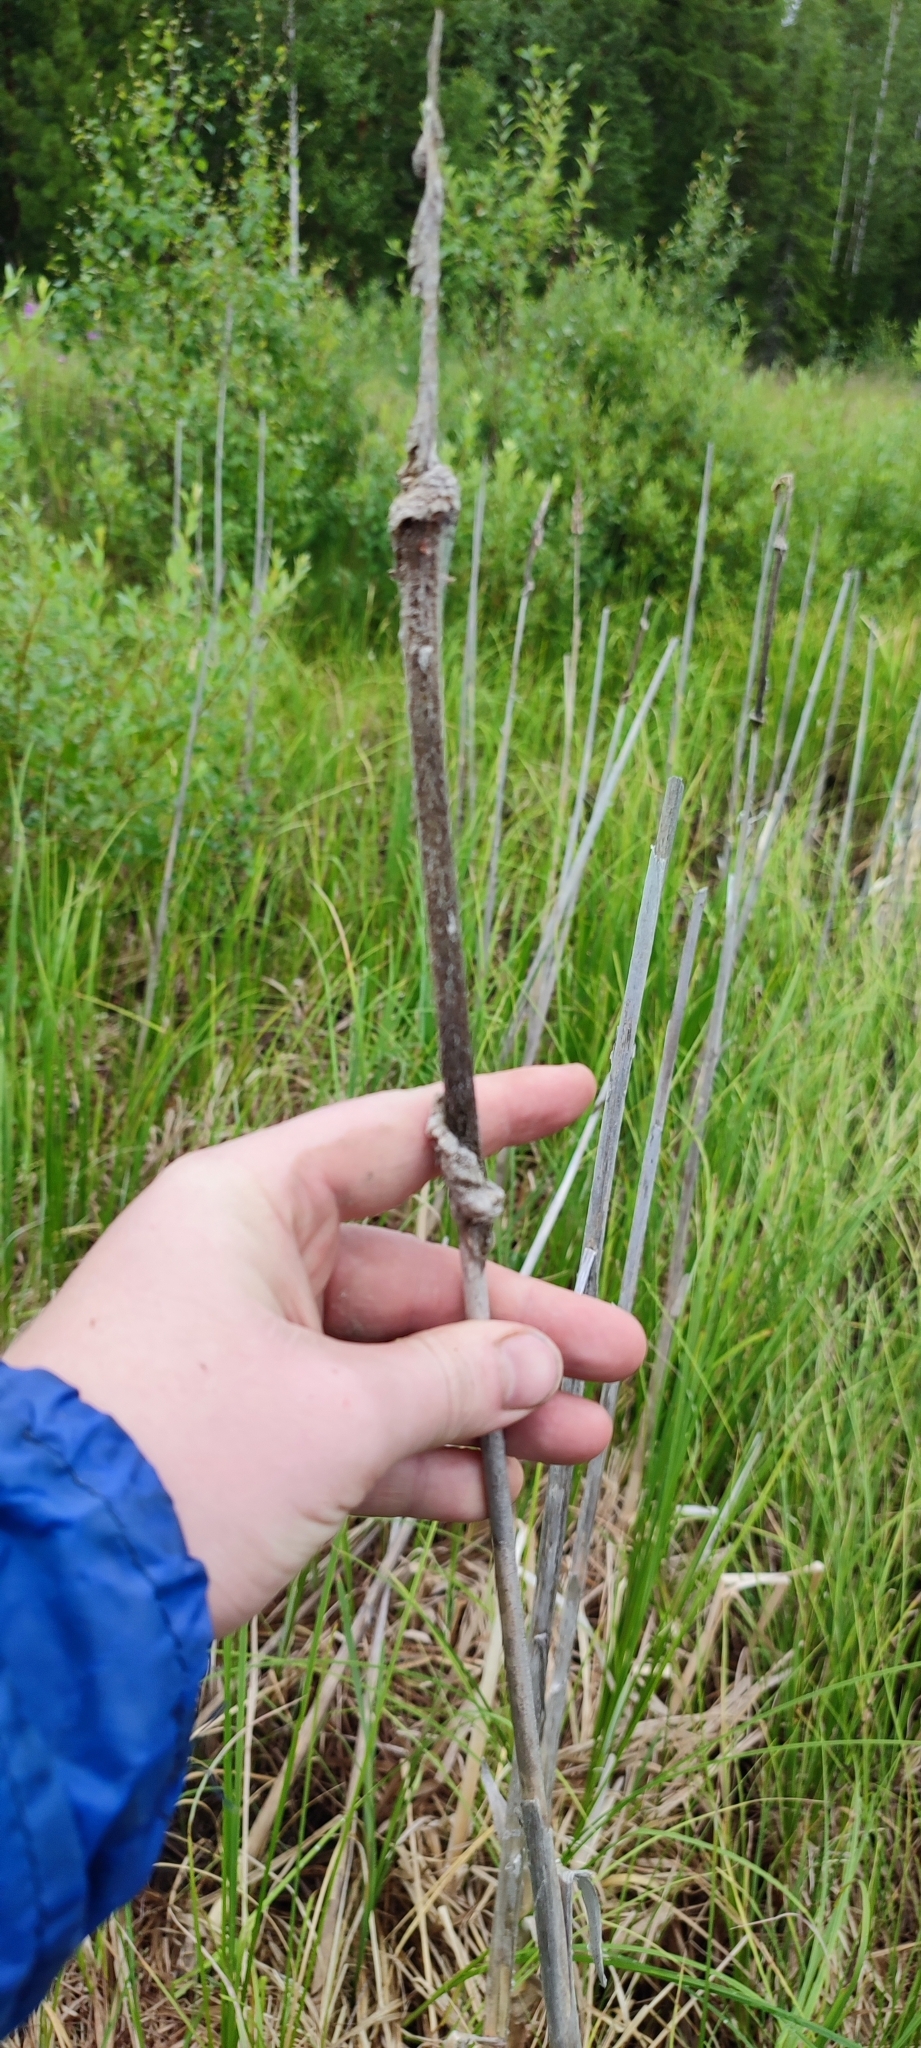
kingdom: Plantae
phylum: Tracheophyta
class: Liliopsida
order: Poales
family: Typhaceae
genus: Typha
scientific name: Typha latifolia
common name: Broadleaf cattail
